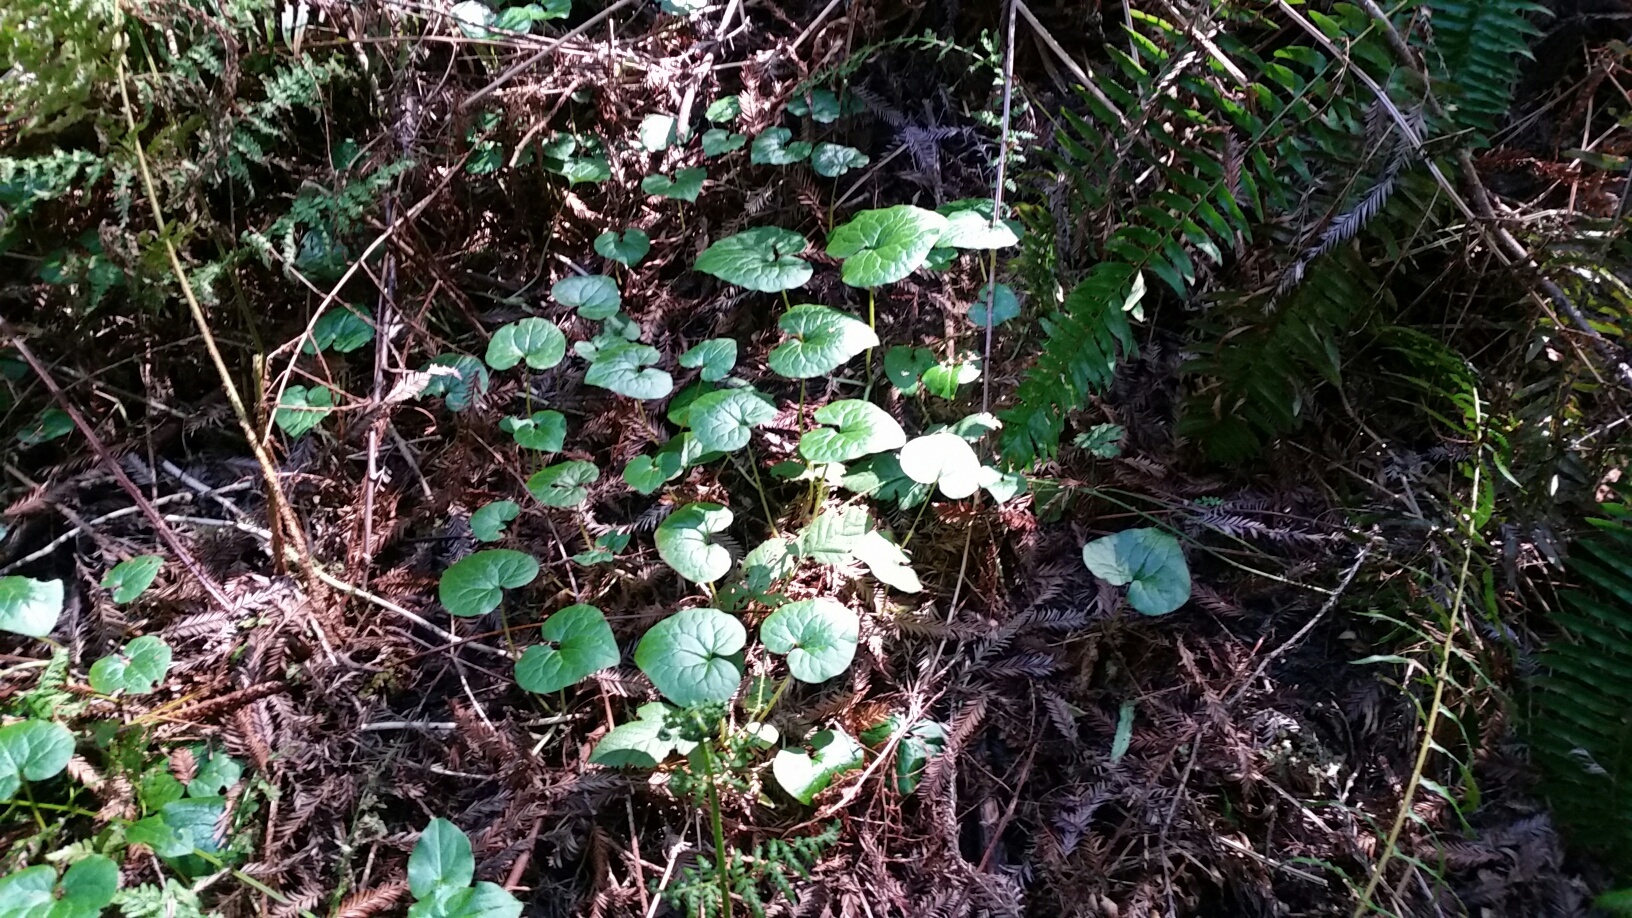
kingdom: Plantae
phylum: Tracheophyta
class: Magnoliopsida
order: Piperales
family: Aristolochiaceae
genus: Asarum
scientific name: Asarum caudatum
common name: Wild ginger
